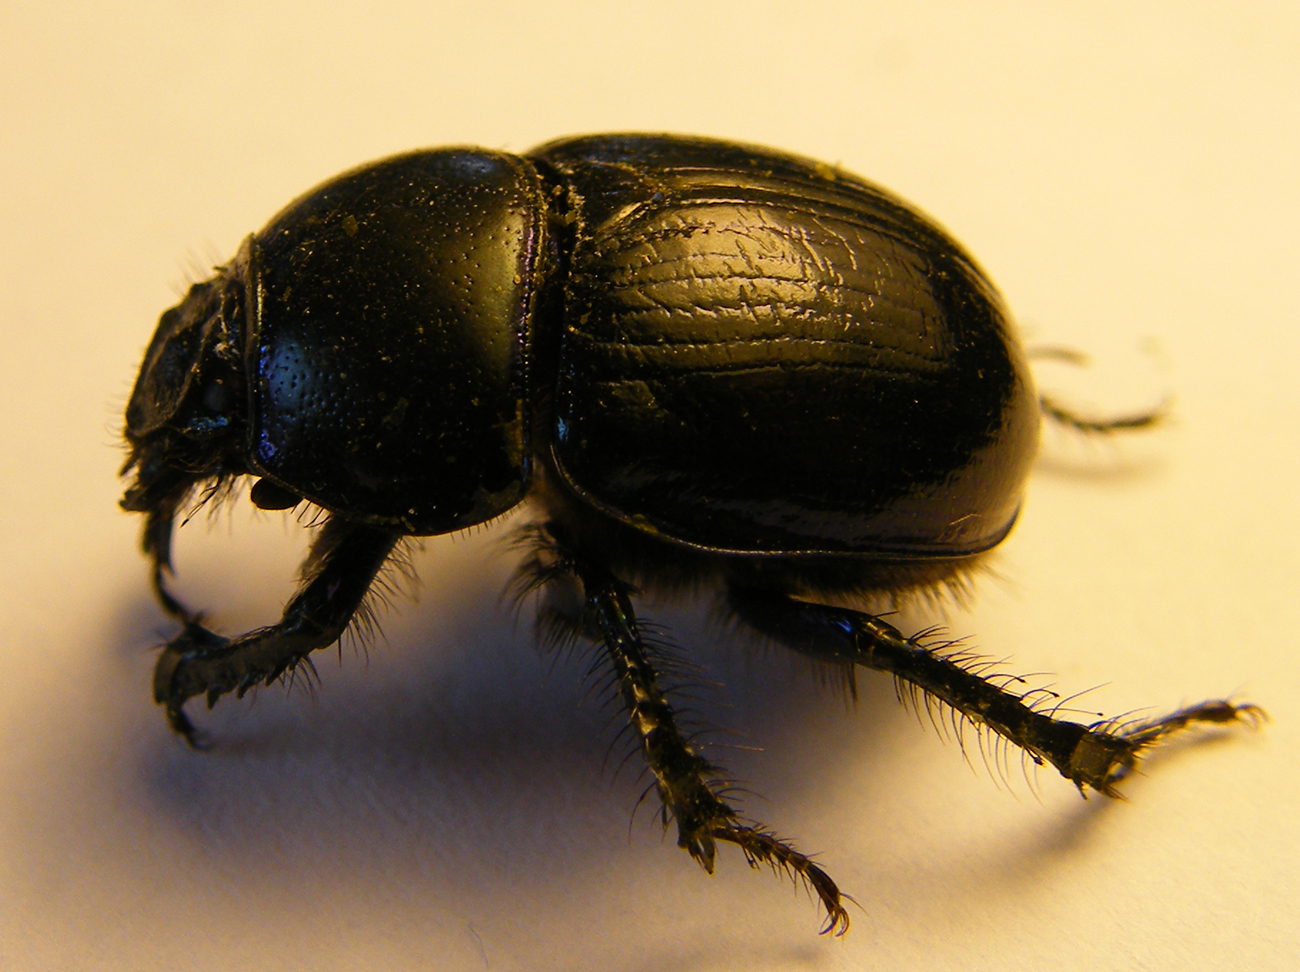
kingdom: Animalia
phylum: Arthropoda
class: Insecta
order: Coleoptera
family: Geotrupidae
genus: Anoplotrupes
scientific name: Anoplotrupes stercorosus
